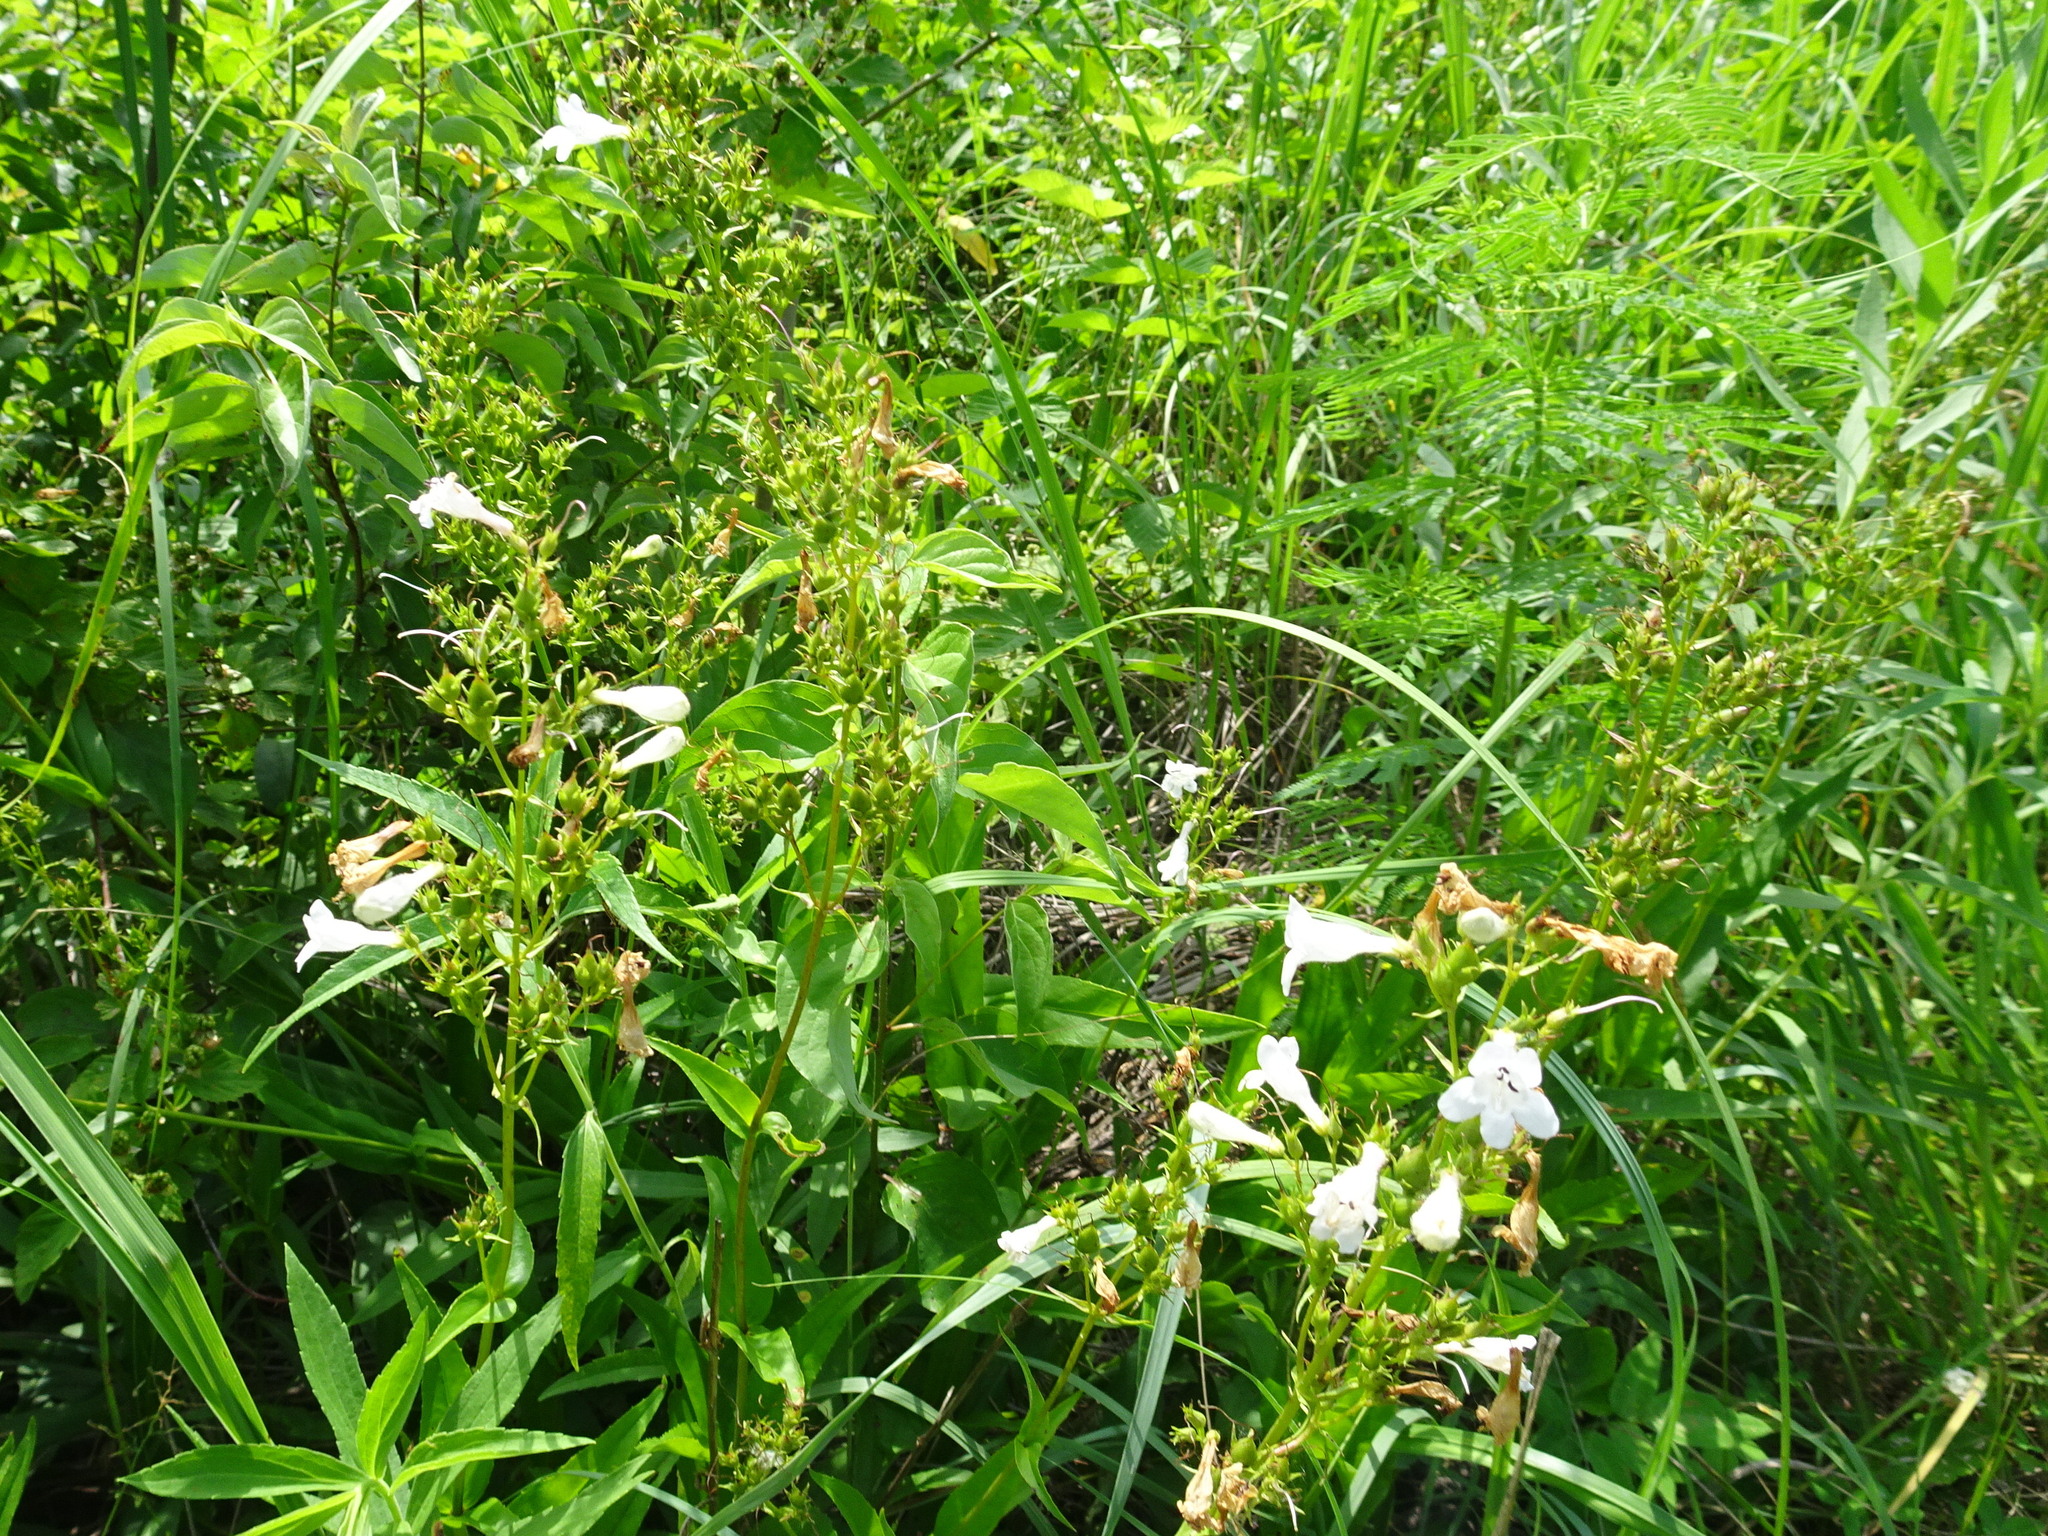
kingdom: Plantae
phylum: Tracheophyta
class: Magnoliopsida
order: Lamiales
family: Plantaginaceae
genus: Penstemon
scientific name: Penstemon digitalis
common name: Foxglove beardtongue
